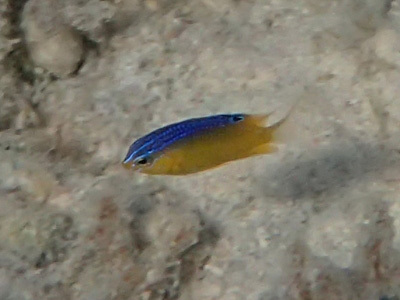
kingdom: Animalia
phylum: Chordata
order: Perciformes
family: Pomacentridae
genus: Stegastes
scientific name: Stegastes leucostictus
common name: Beaugregory
